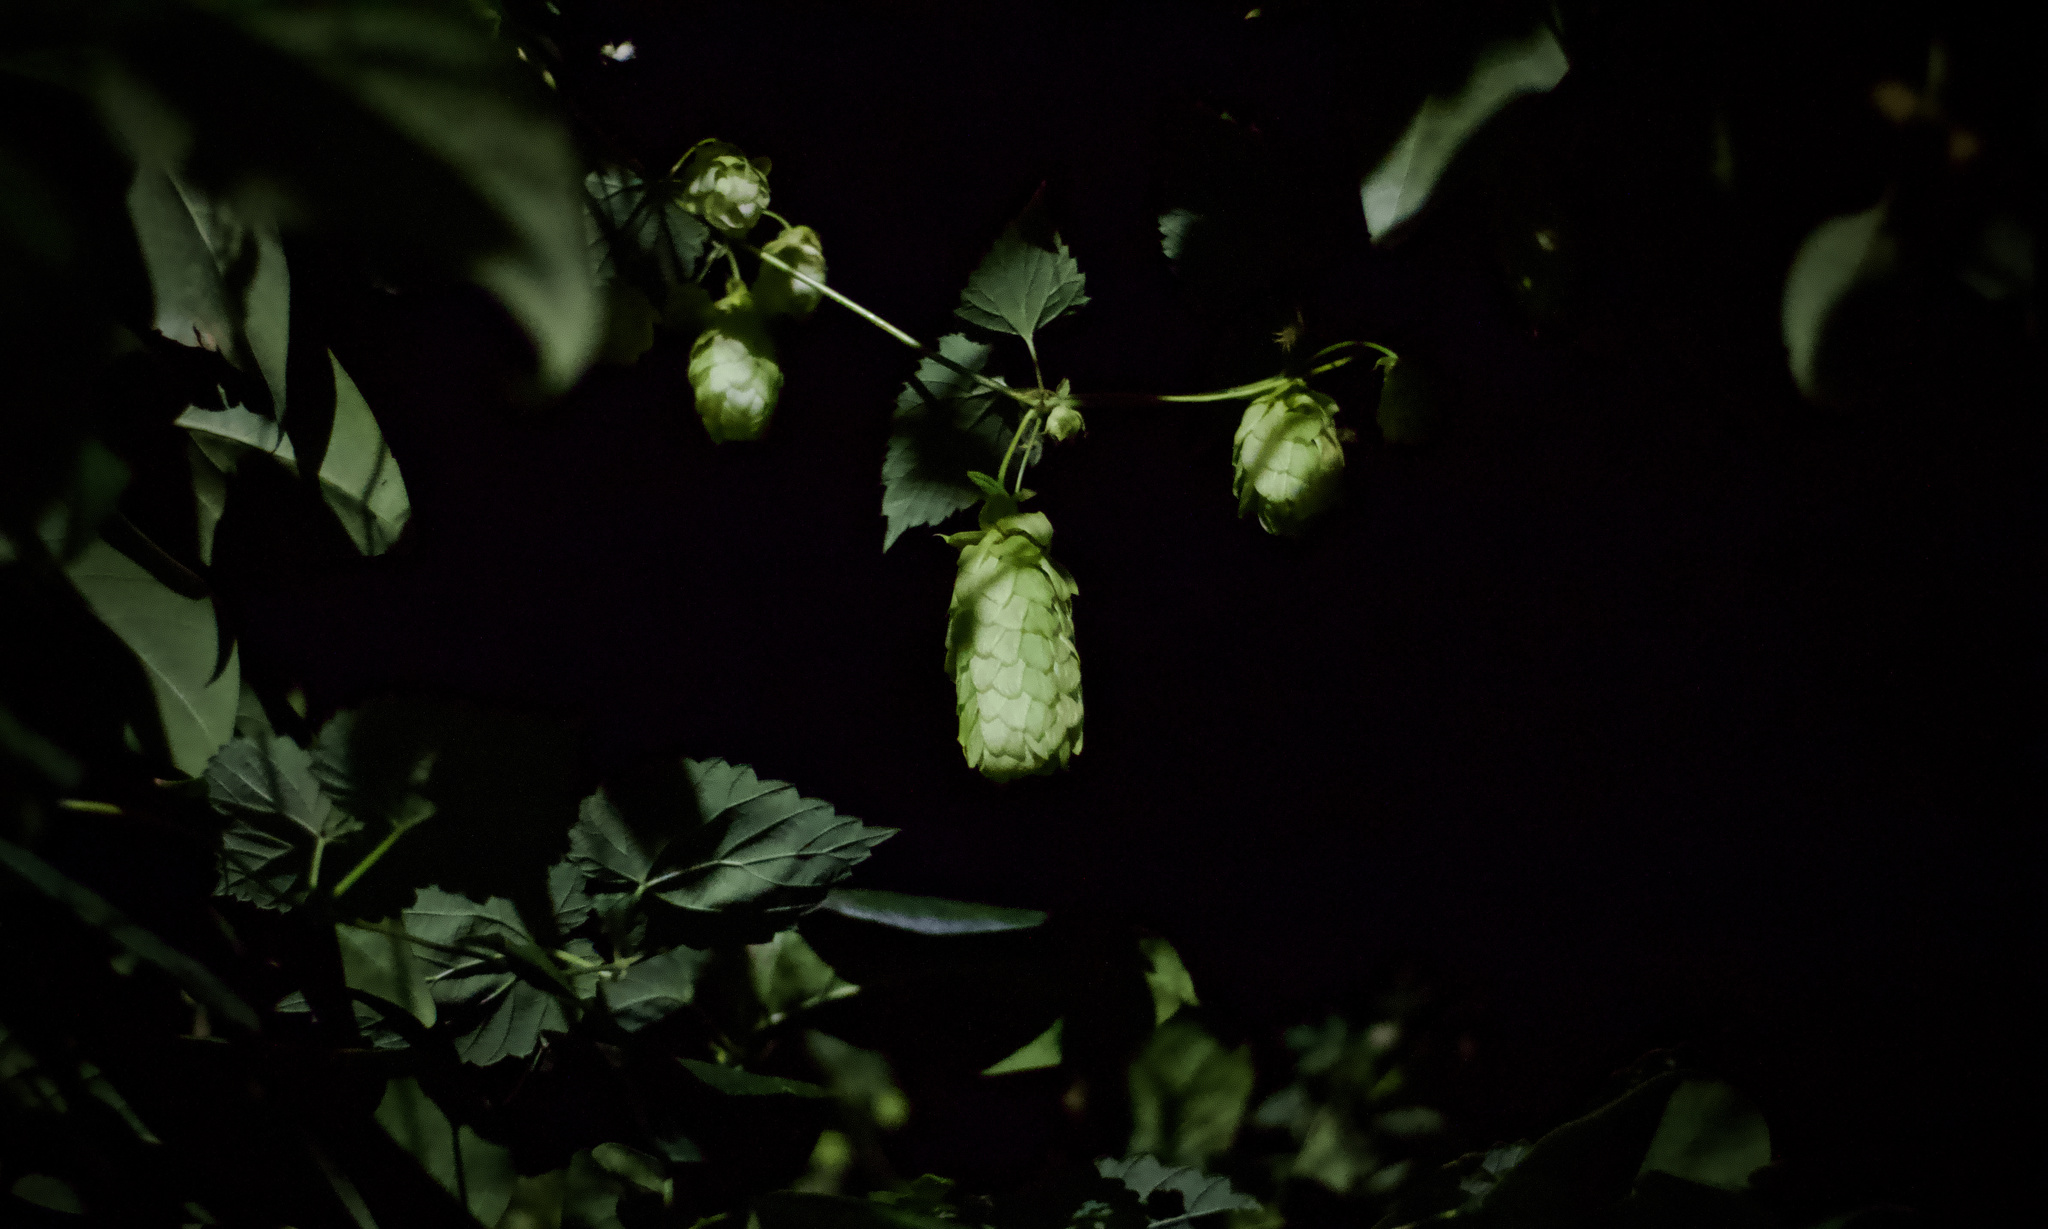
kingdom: Plantae
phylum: Tracheophyta
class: Magnoliopsida
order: Rosales
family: Cannabaceae
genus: Humulus
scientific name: Humulus lupulus
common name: Hop
